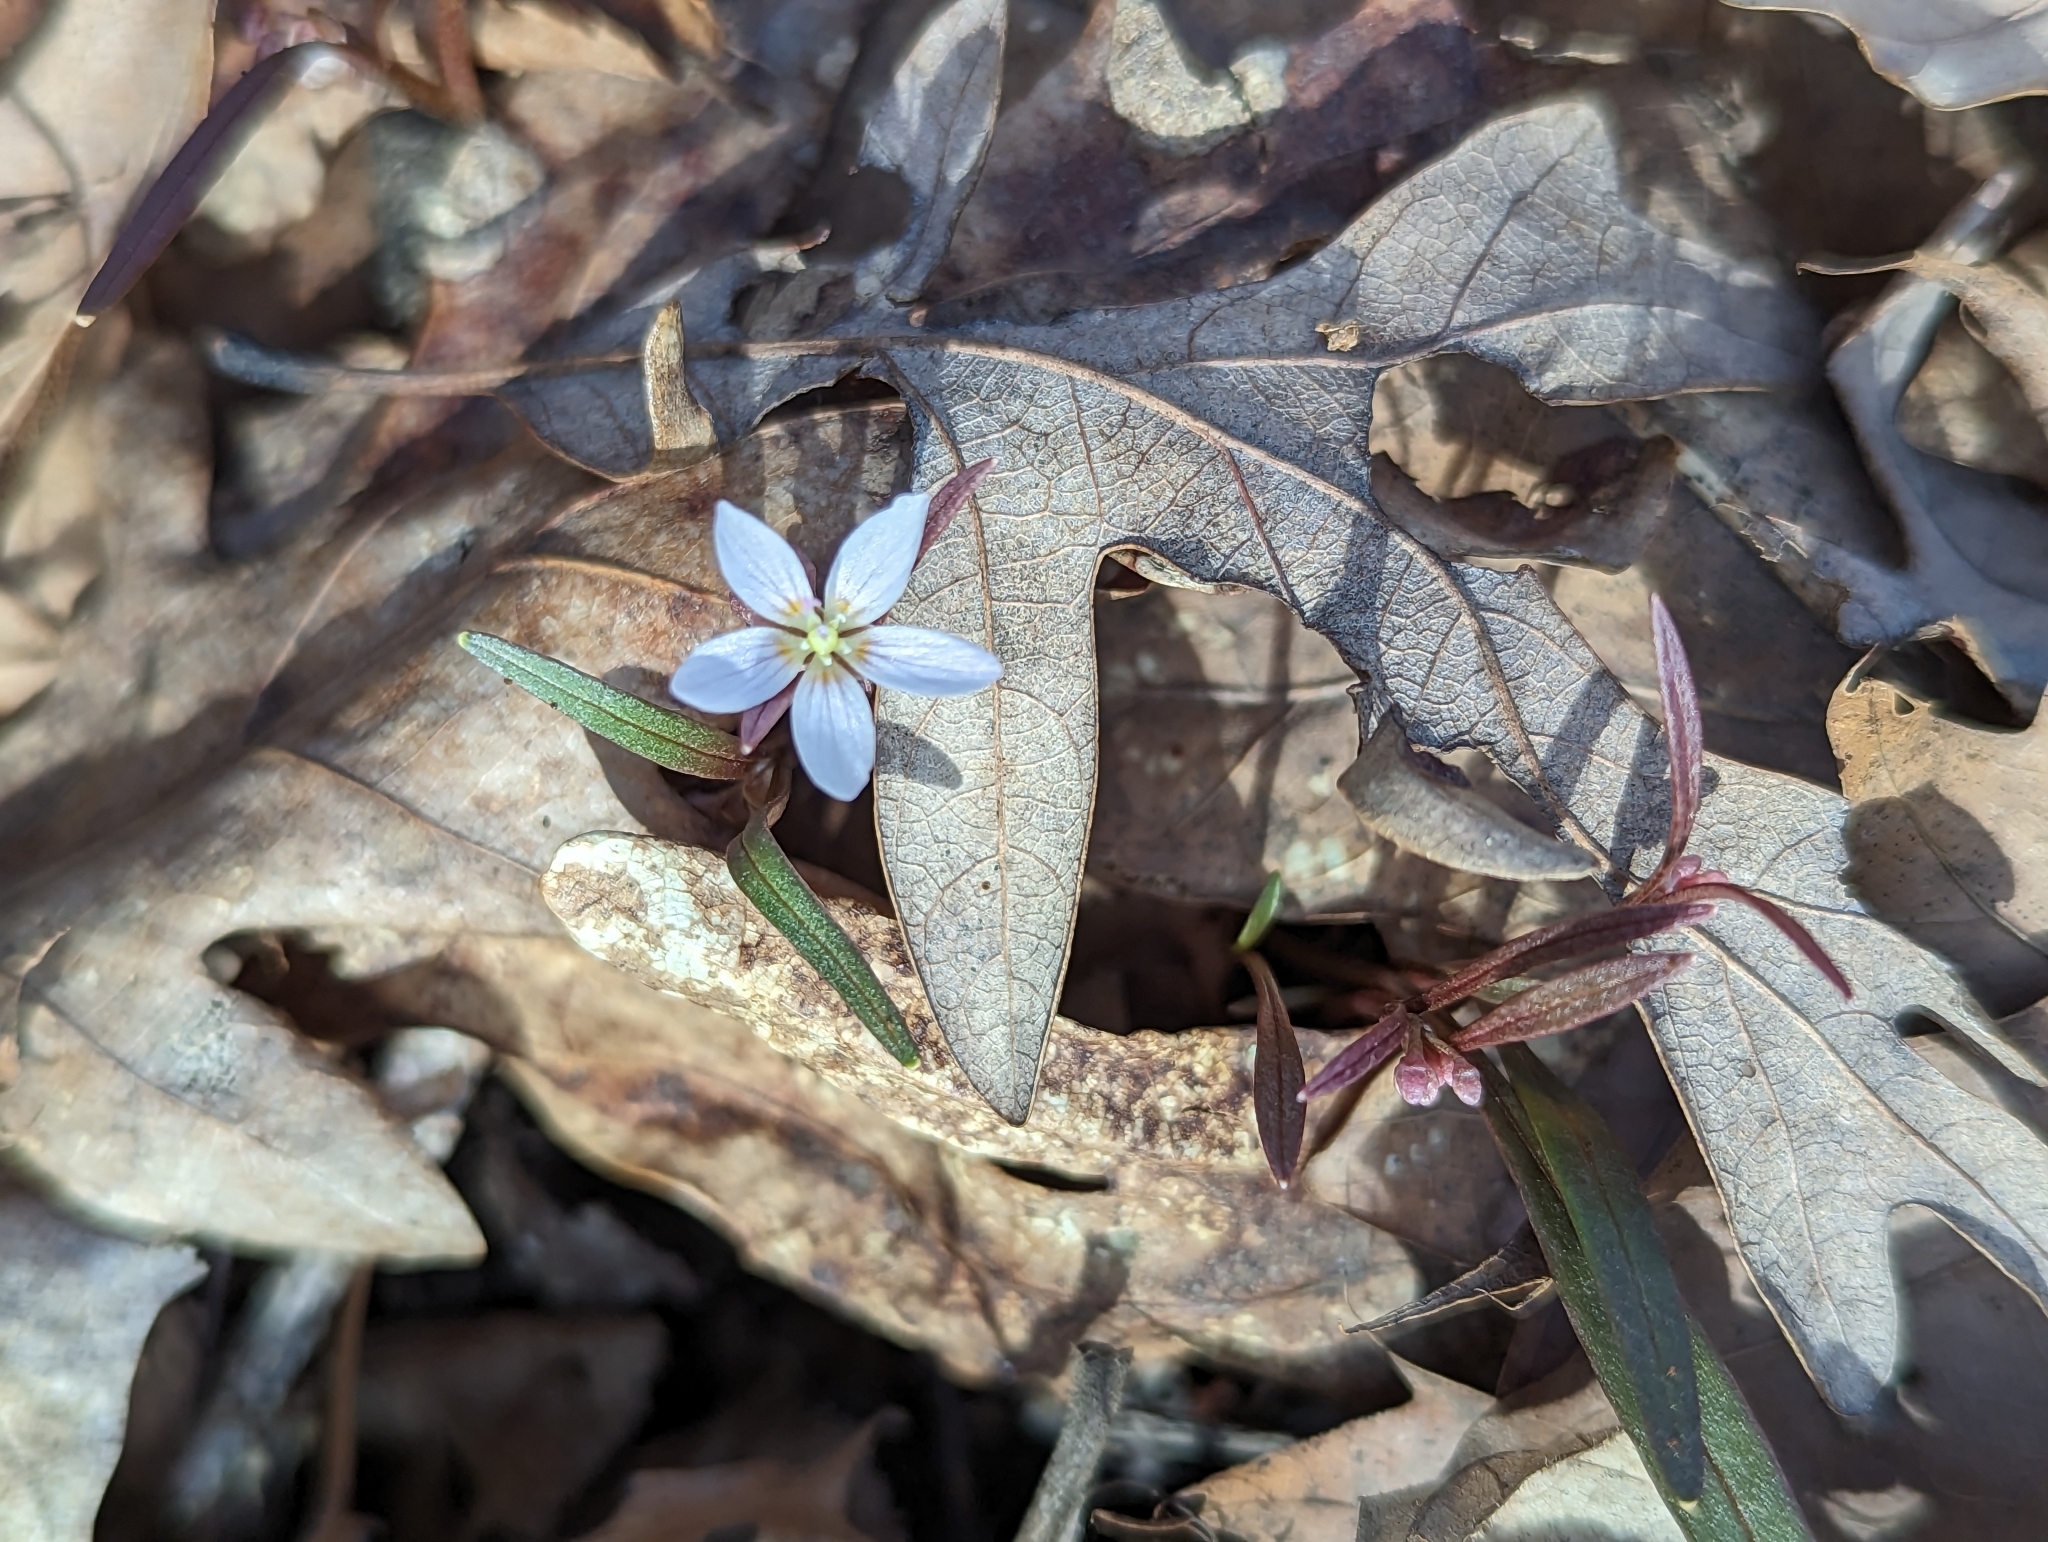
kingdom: Plantae
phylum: Tracheophyta
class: Magnoliopsida
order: Caryophyllales
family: Montiaceae
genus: Claytonia
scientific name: Claytonia virginica
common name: Virginia springbeauty
